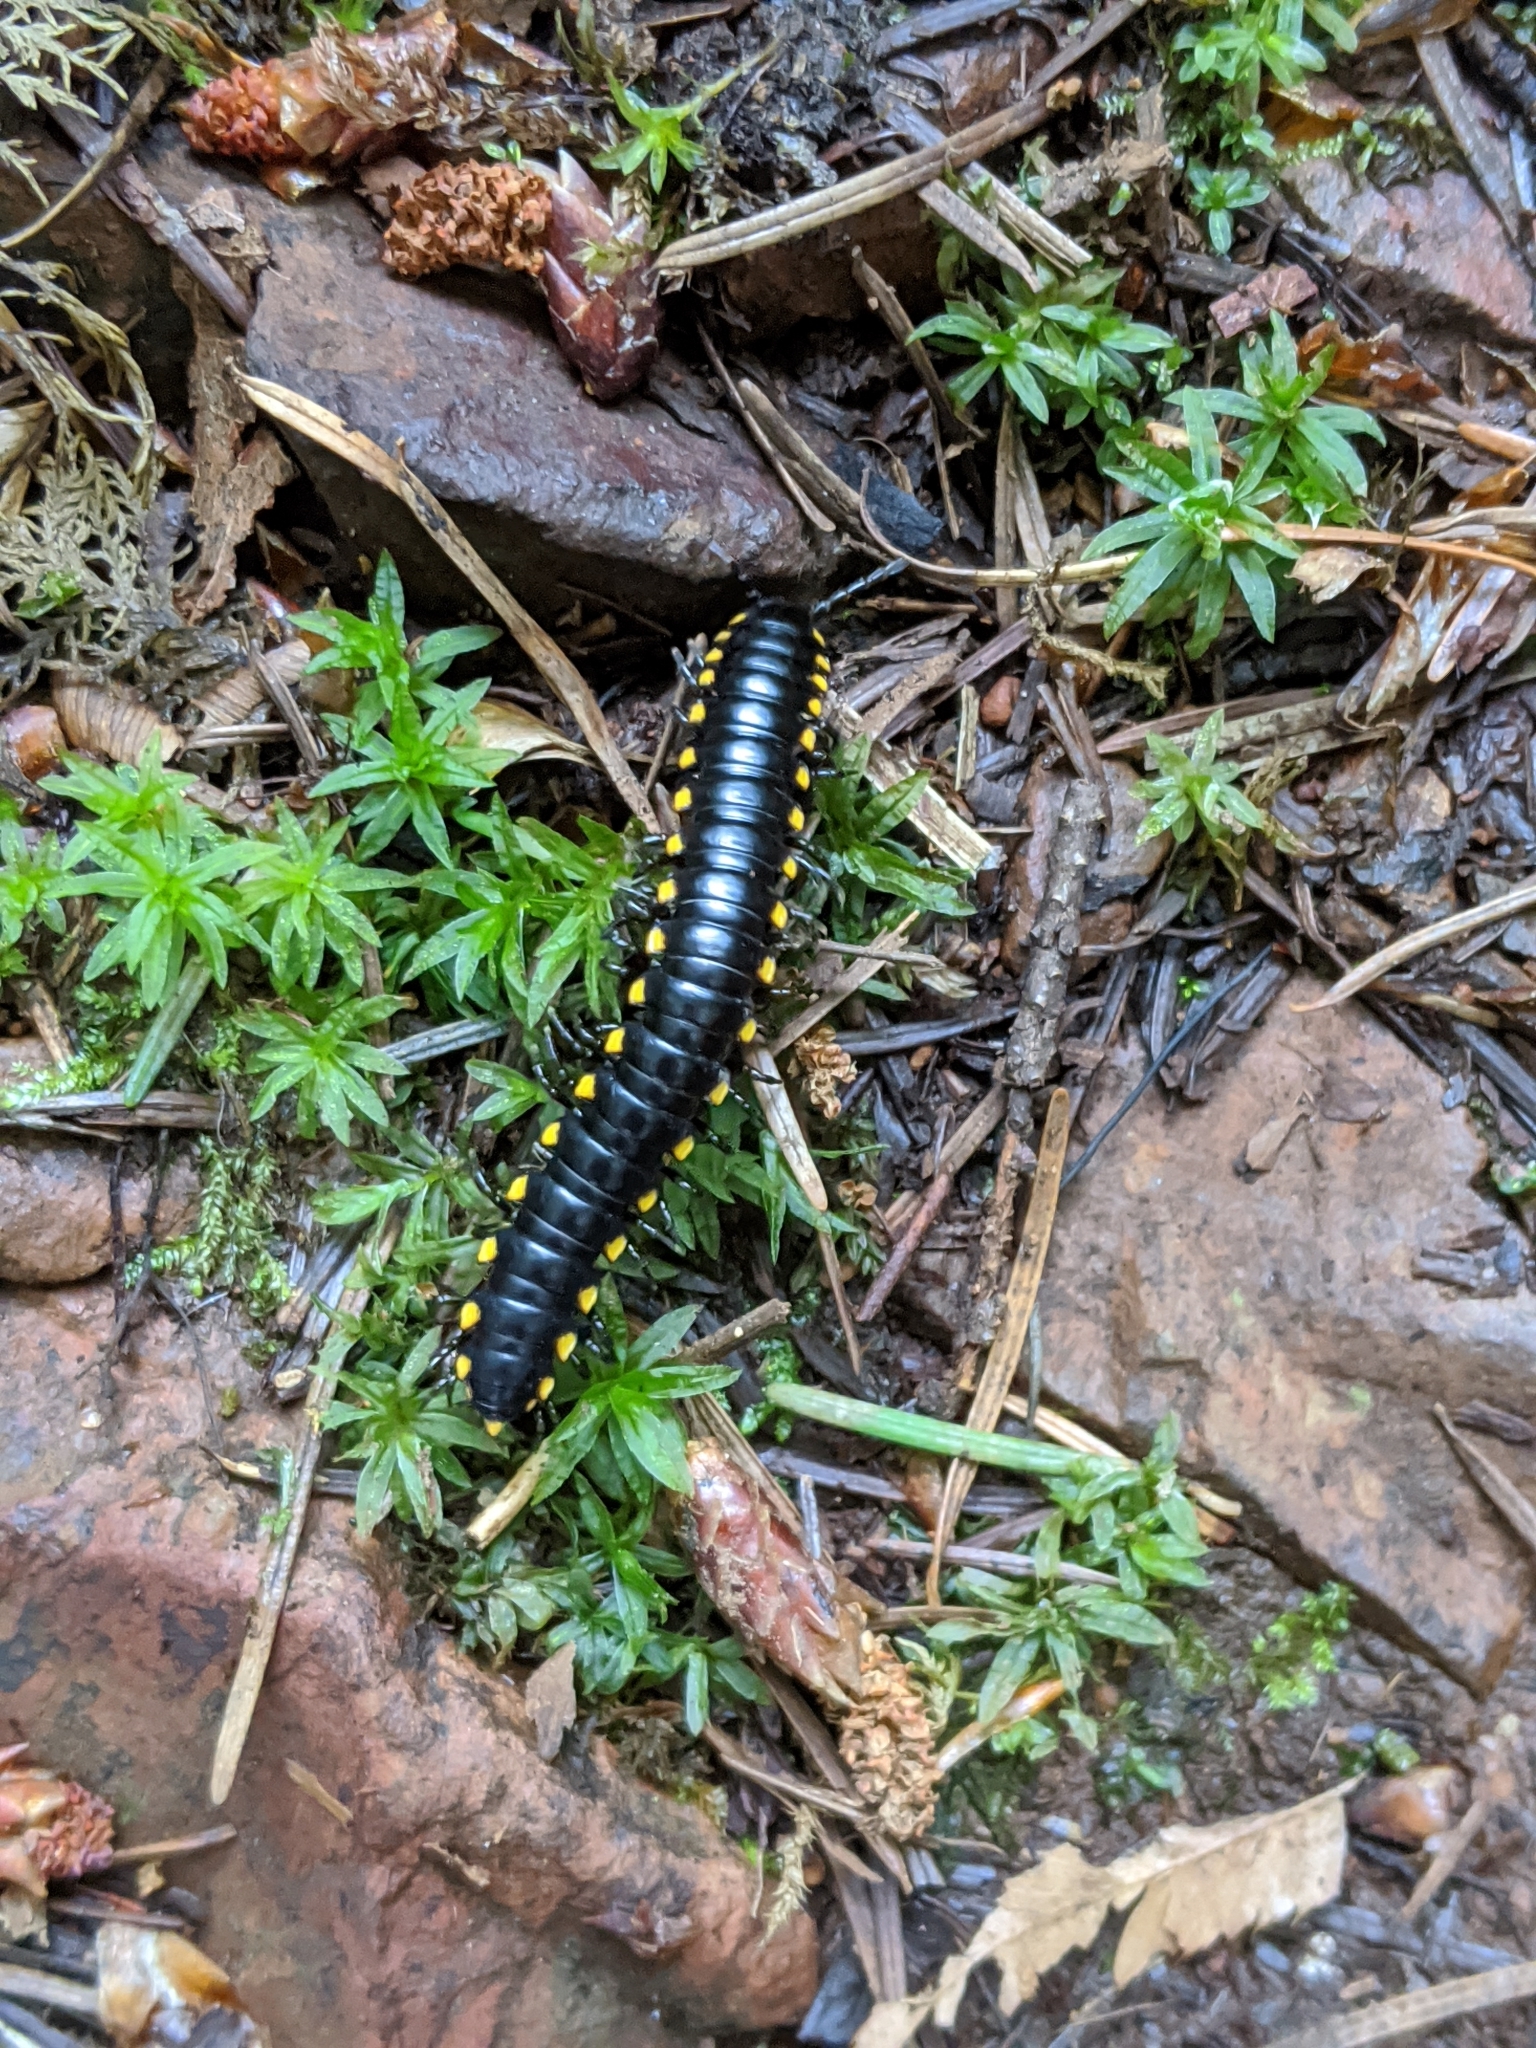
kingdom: Animalia
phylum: Arthropoda
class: Diplopoda
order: Polydesmida
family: Xystodesmidae
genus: Harpaphe
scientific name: Harpaphe haydeniana
